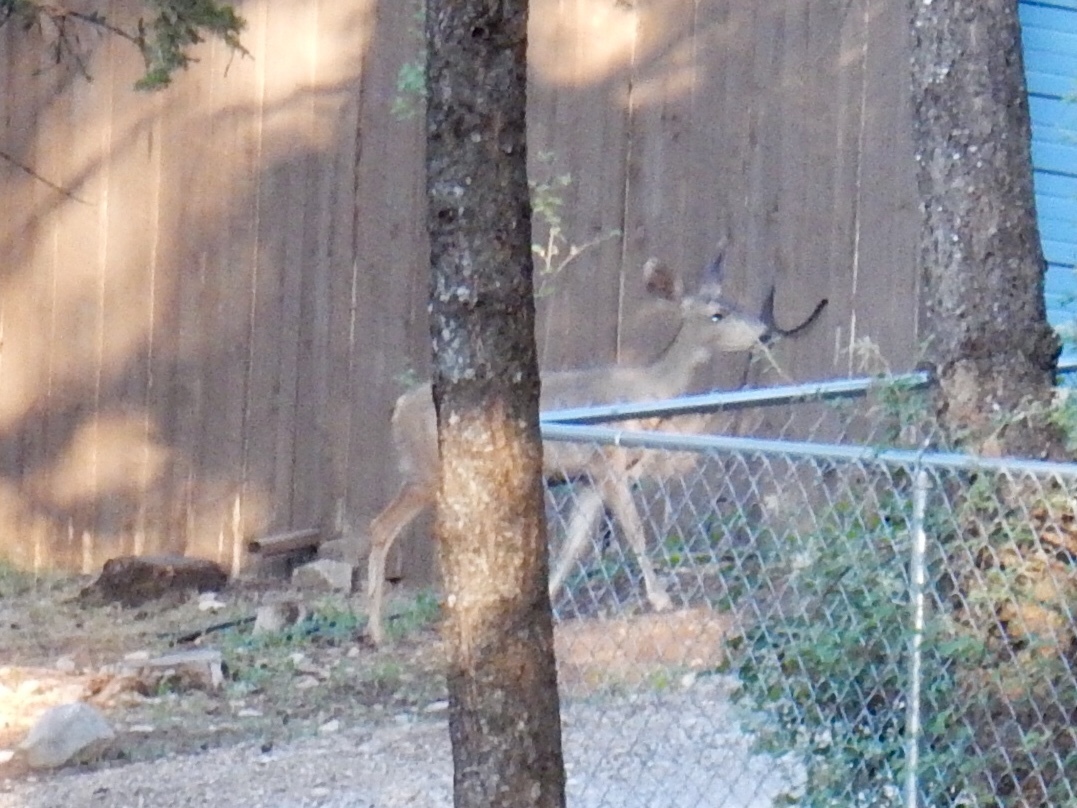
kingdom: Animalia
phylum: Chordata
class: Mammalia
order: Artiodactyla
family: Cervidae
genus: Odocoileus
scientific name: Odocoileus hemionus
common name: Mule deer
